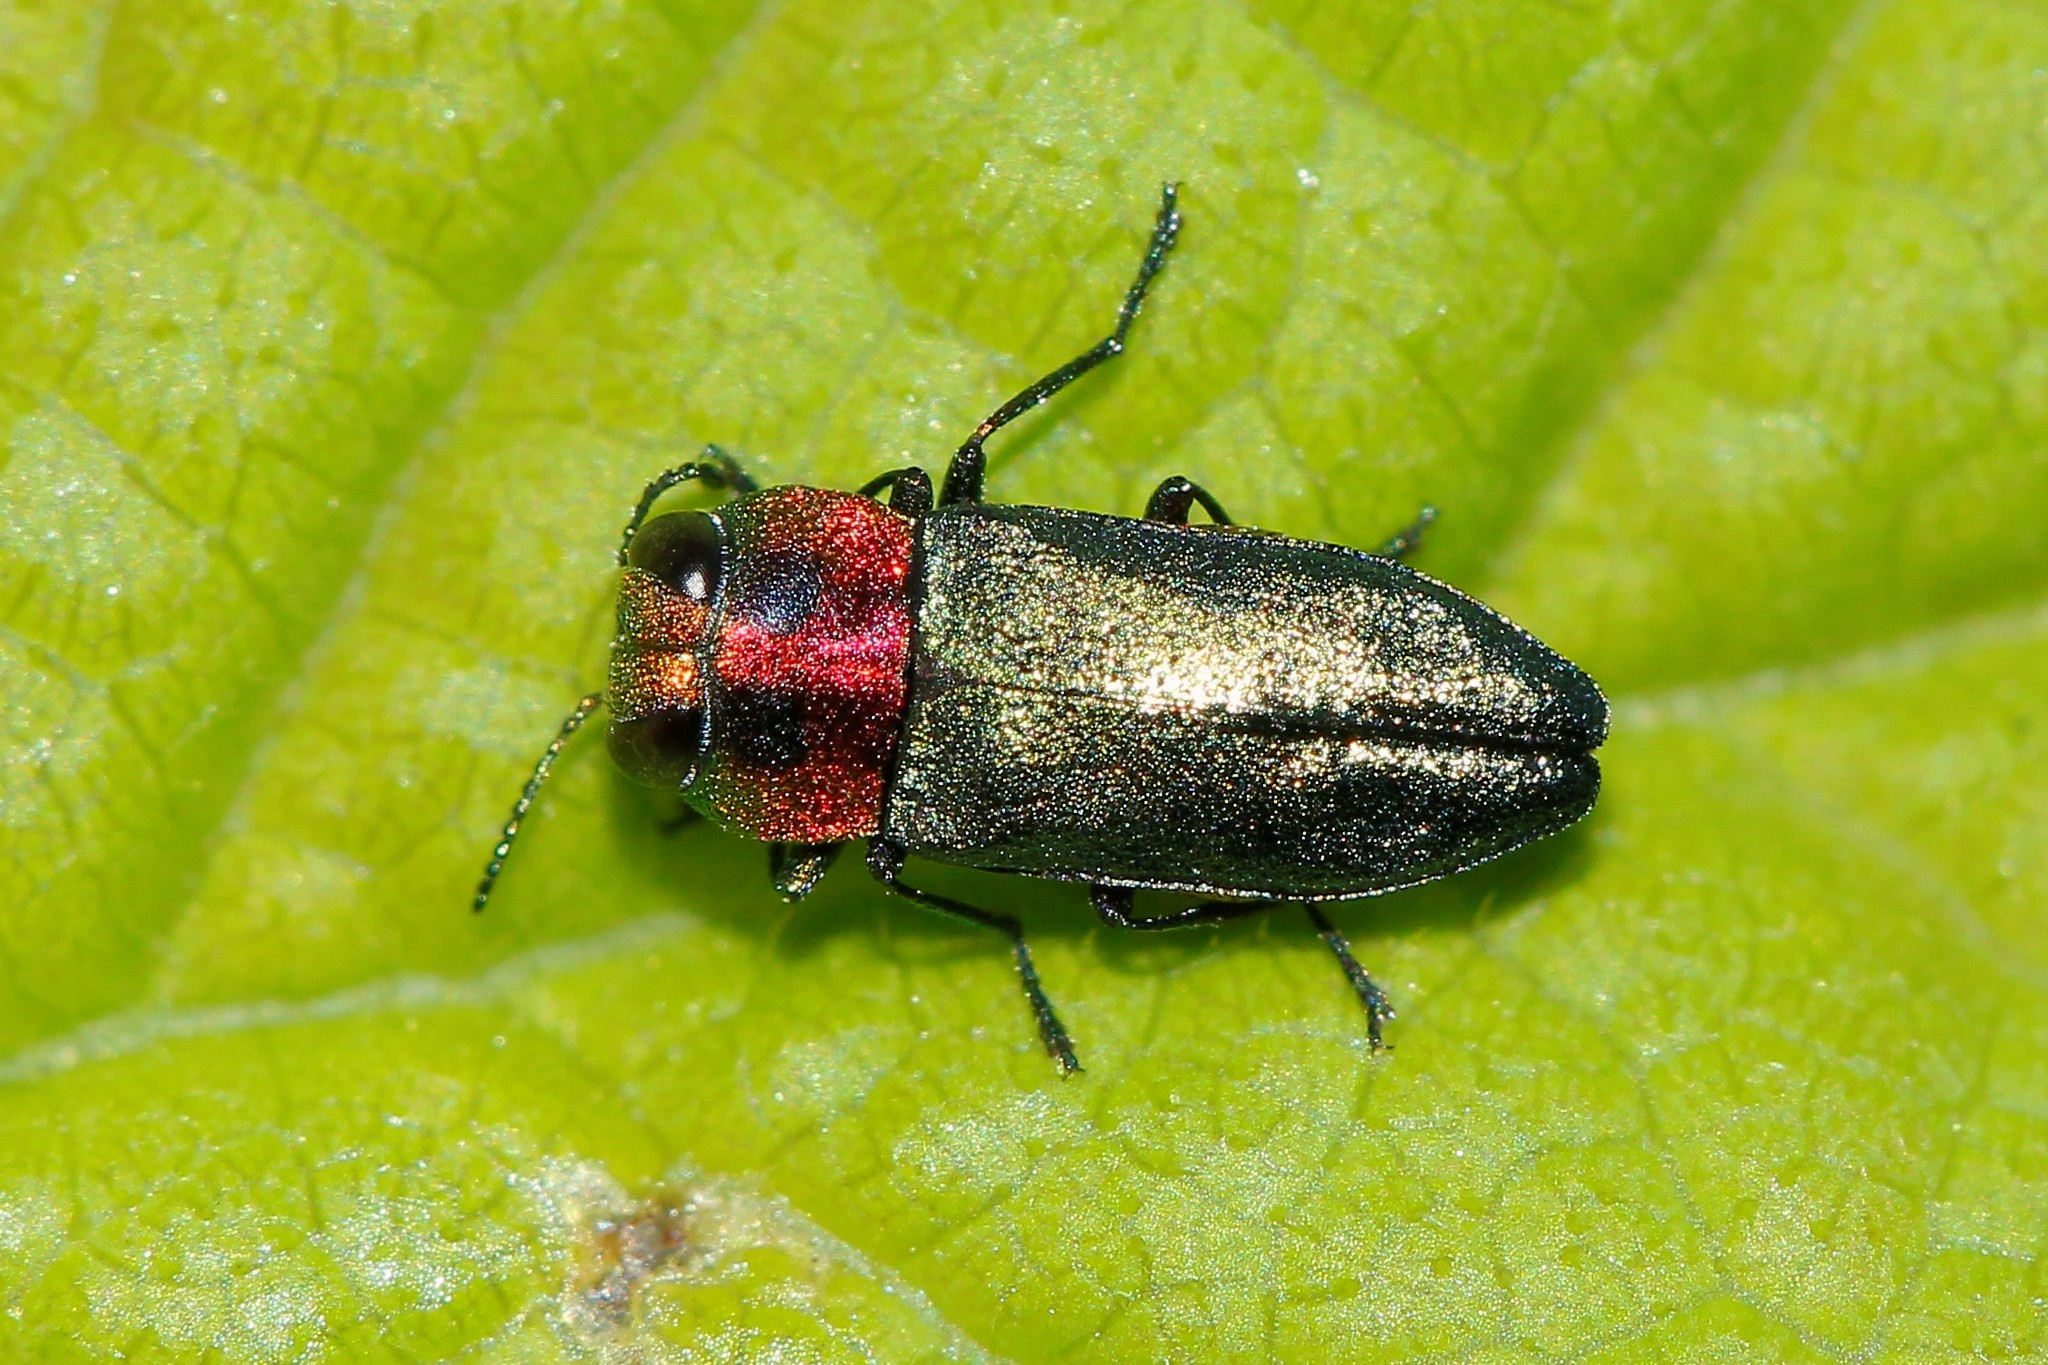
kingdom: Animalia
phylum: Arthropoda
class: Insecta
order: Coleoptera
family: Buprestidae
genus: Anthaxia
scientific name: Anthaxia nitidula
